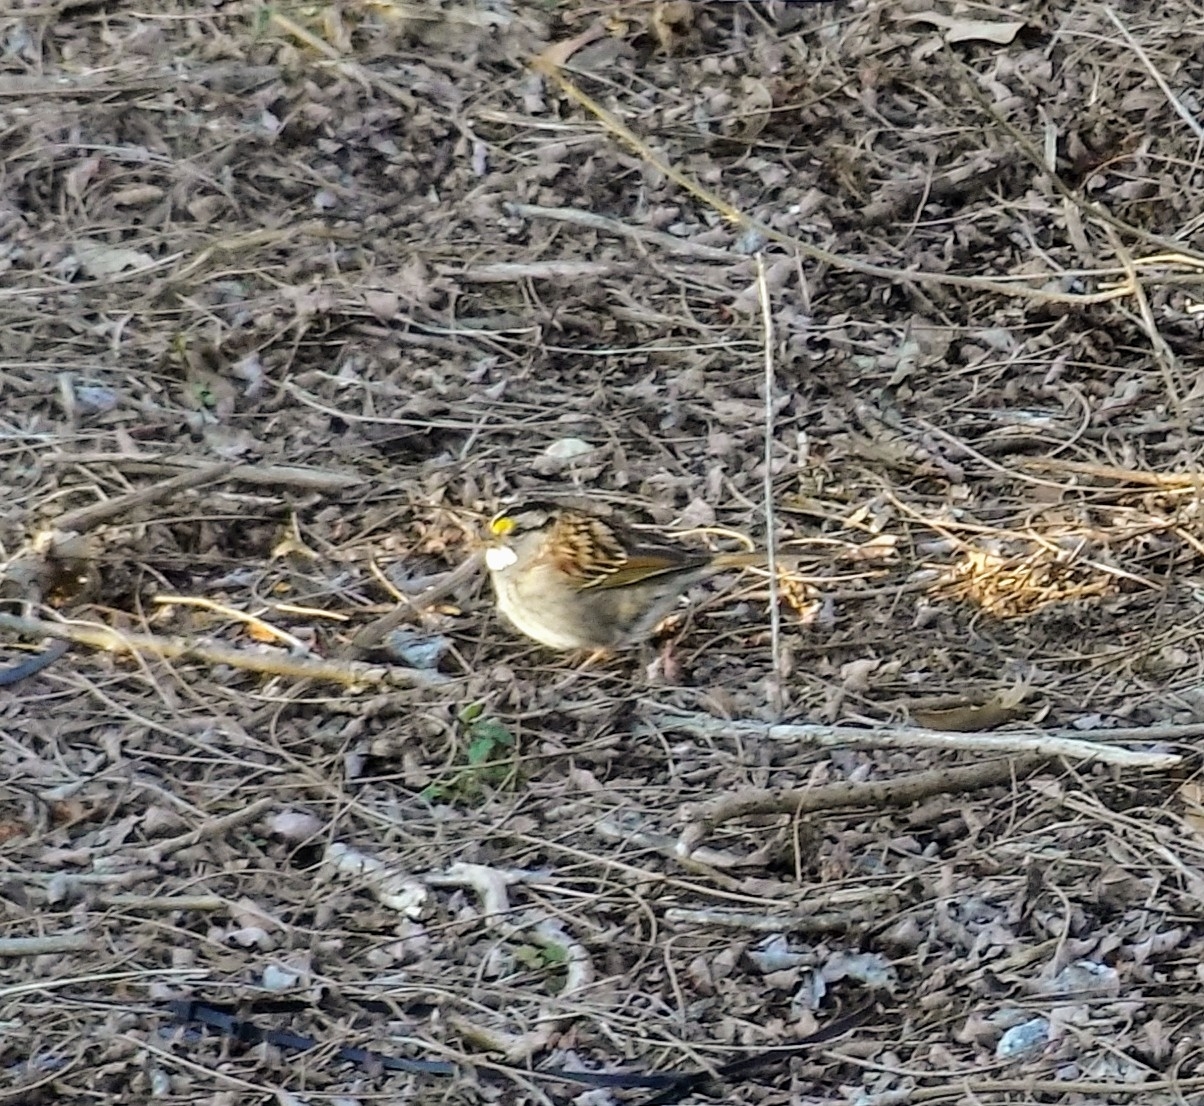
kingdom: Animalia
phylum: Chordata
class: Aves
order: Passeriformes
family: Passerellidae
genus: Zonotrichia
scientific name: Zonotrichia albicollis
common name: White-throated sparrow
